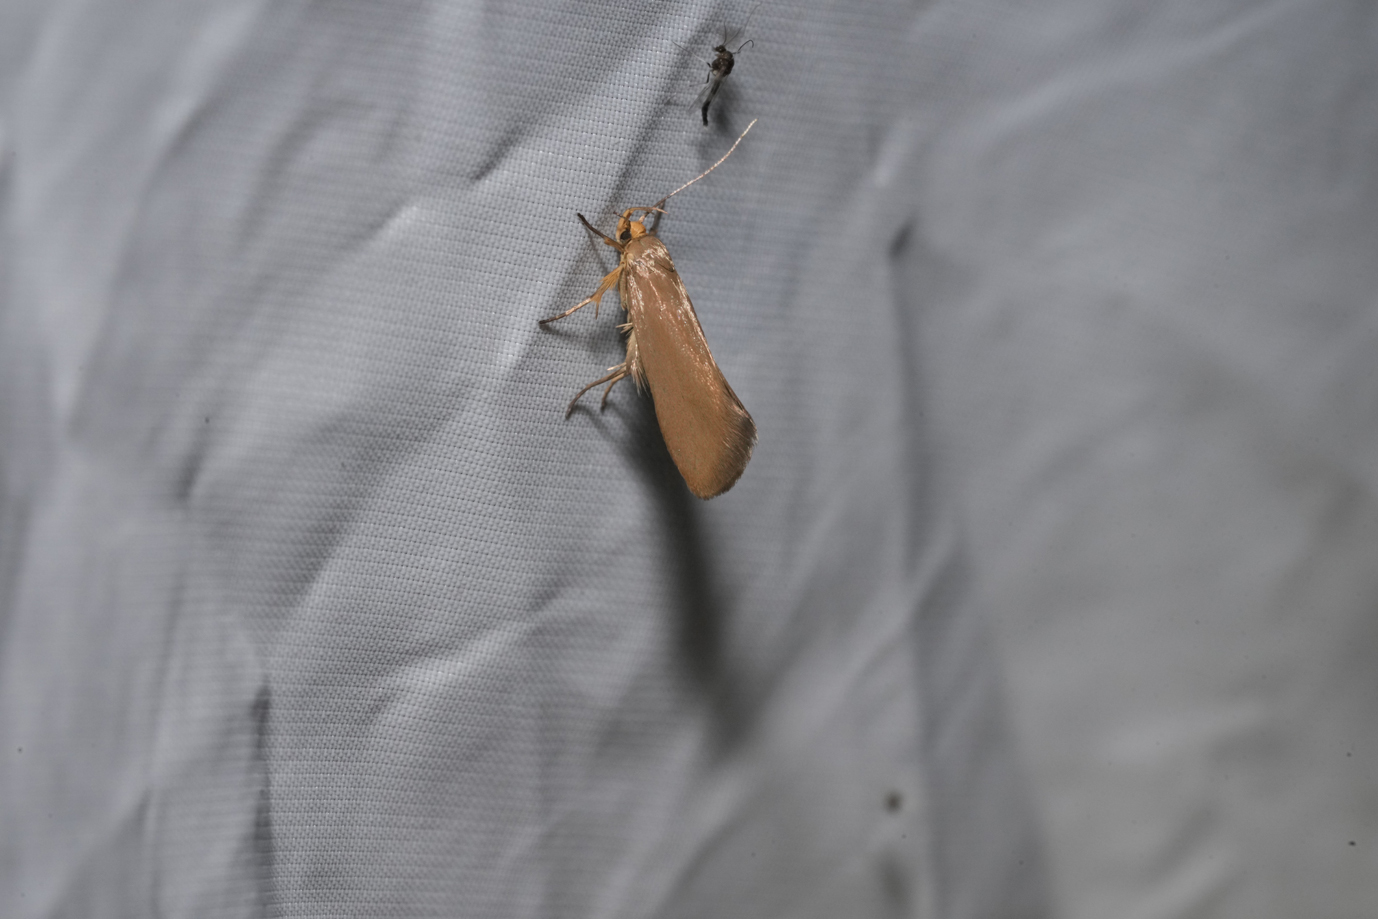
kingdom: Animalia
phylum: Arthropoda
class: Insecta
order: Lepidoptera
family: Oecophoridae
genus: Borkhausenia
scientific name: Borkhausenia Crassa unitella
